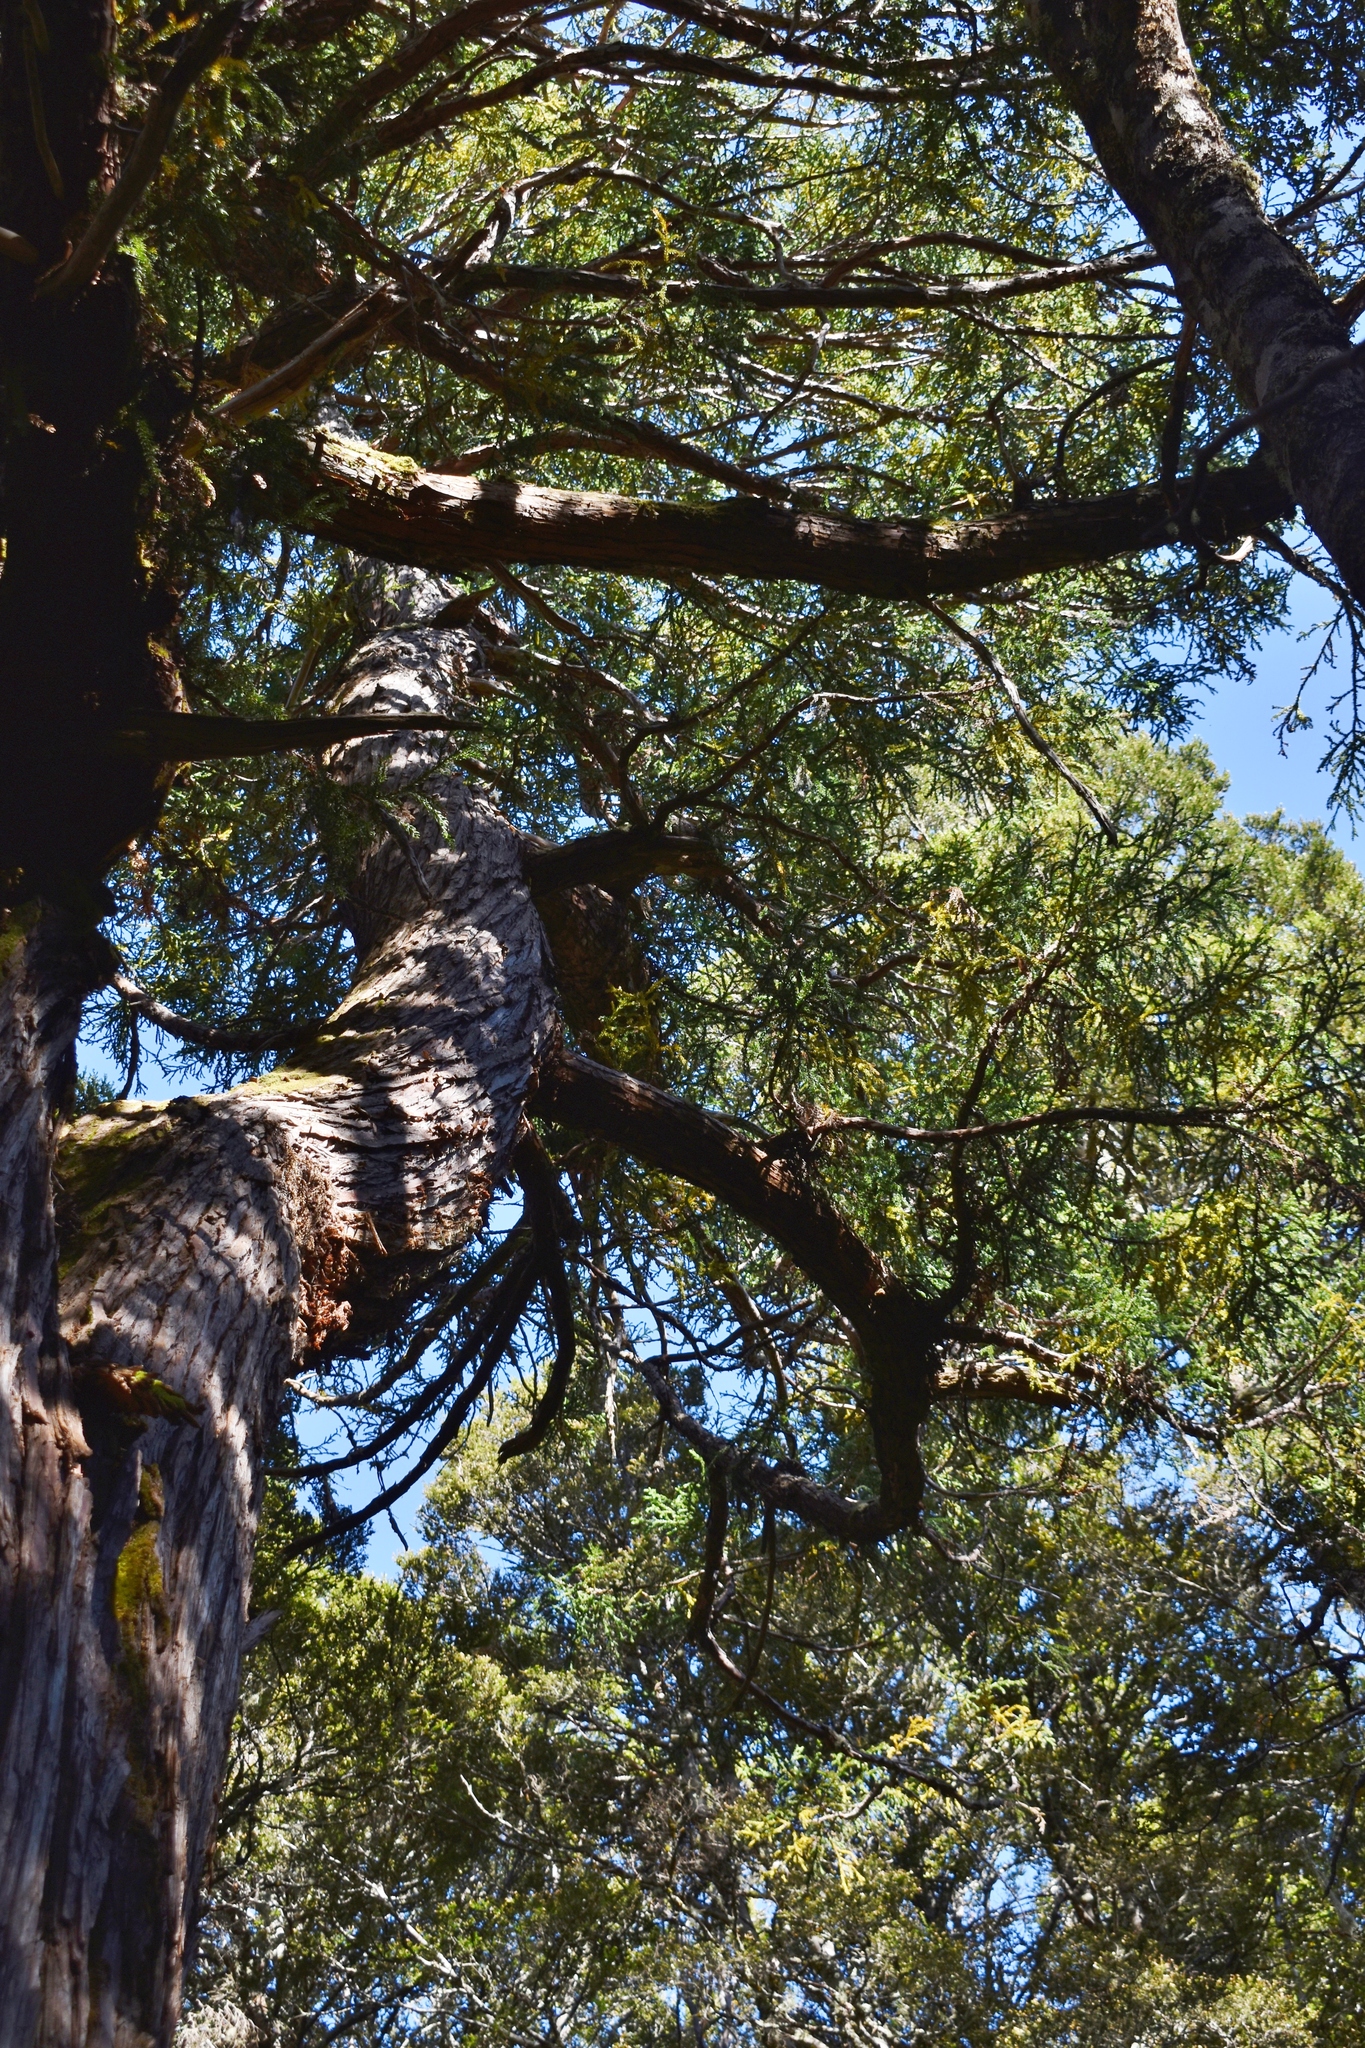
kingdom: Plantae
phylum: Tracheophyta
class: Pinopsida
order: Pinales
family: Cupressaceae
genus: Athrotaxis
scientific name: Athrotaxis selaginoides
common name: King william pine
